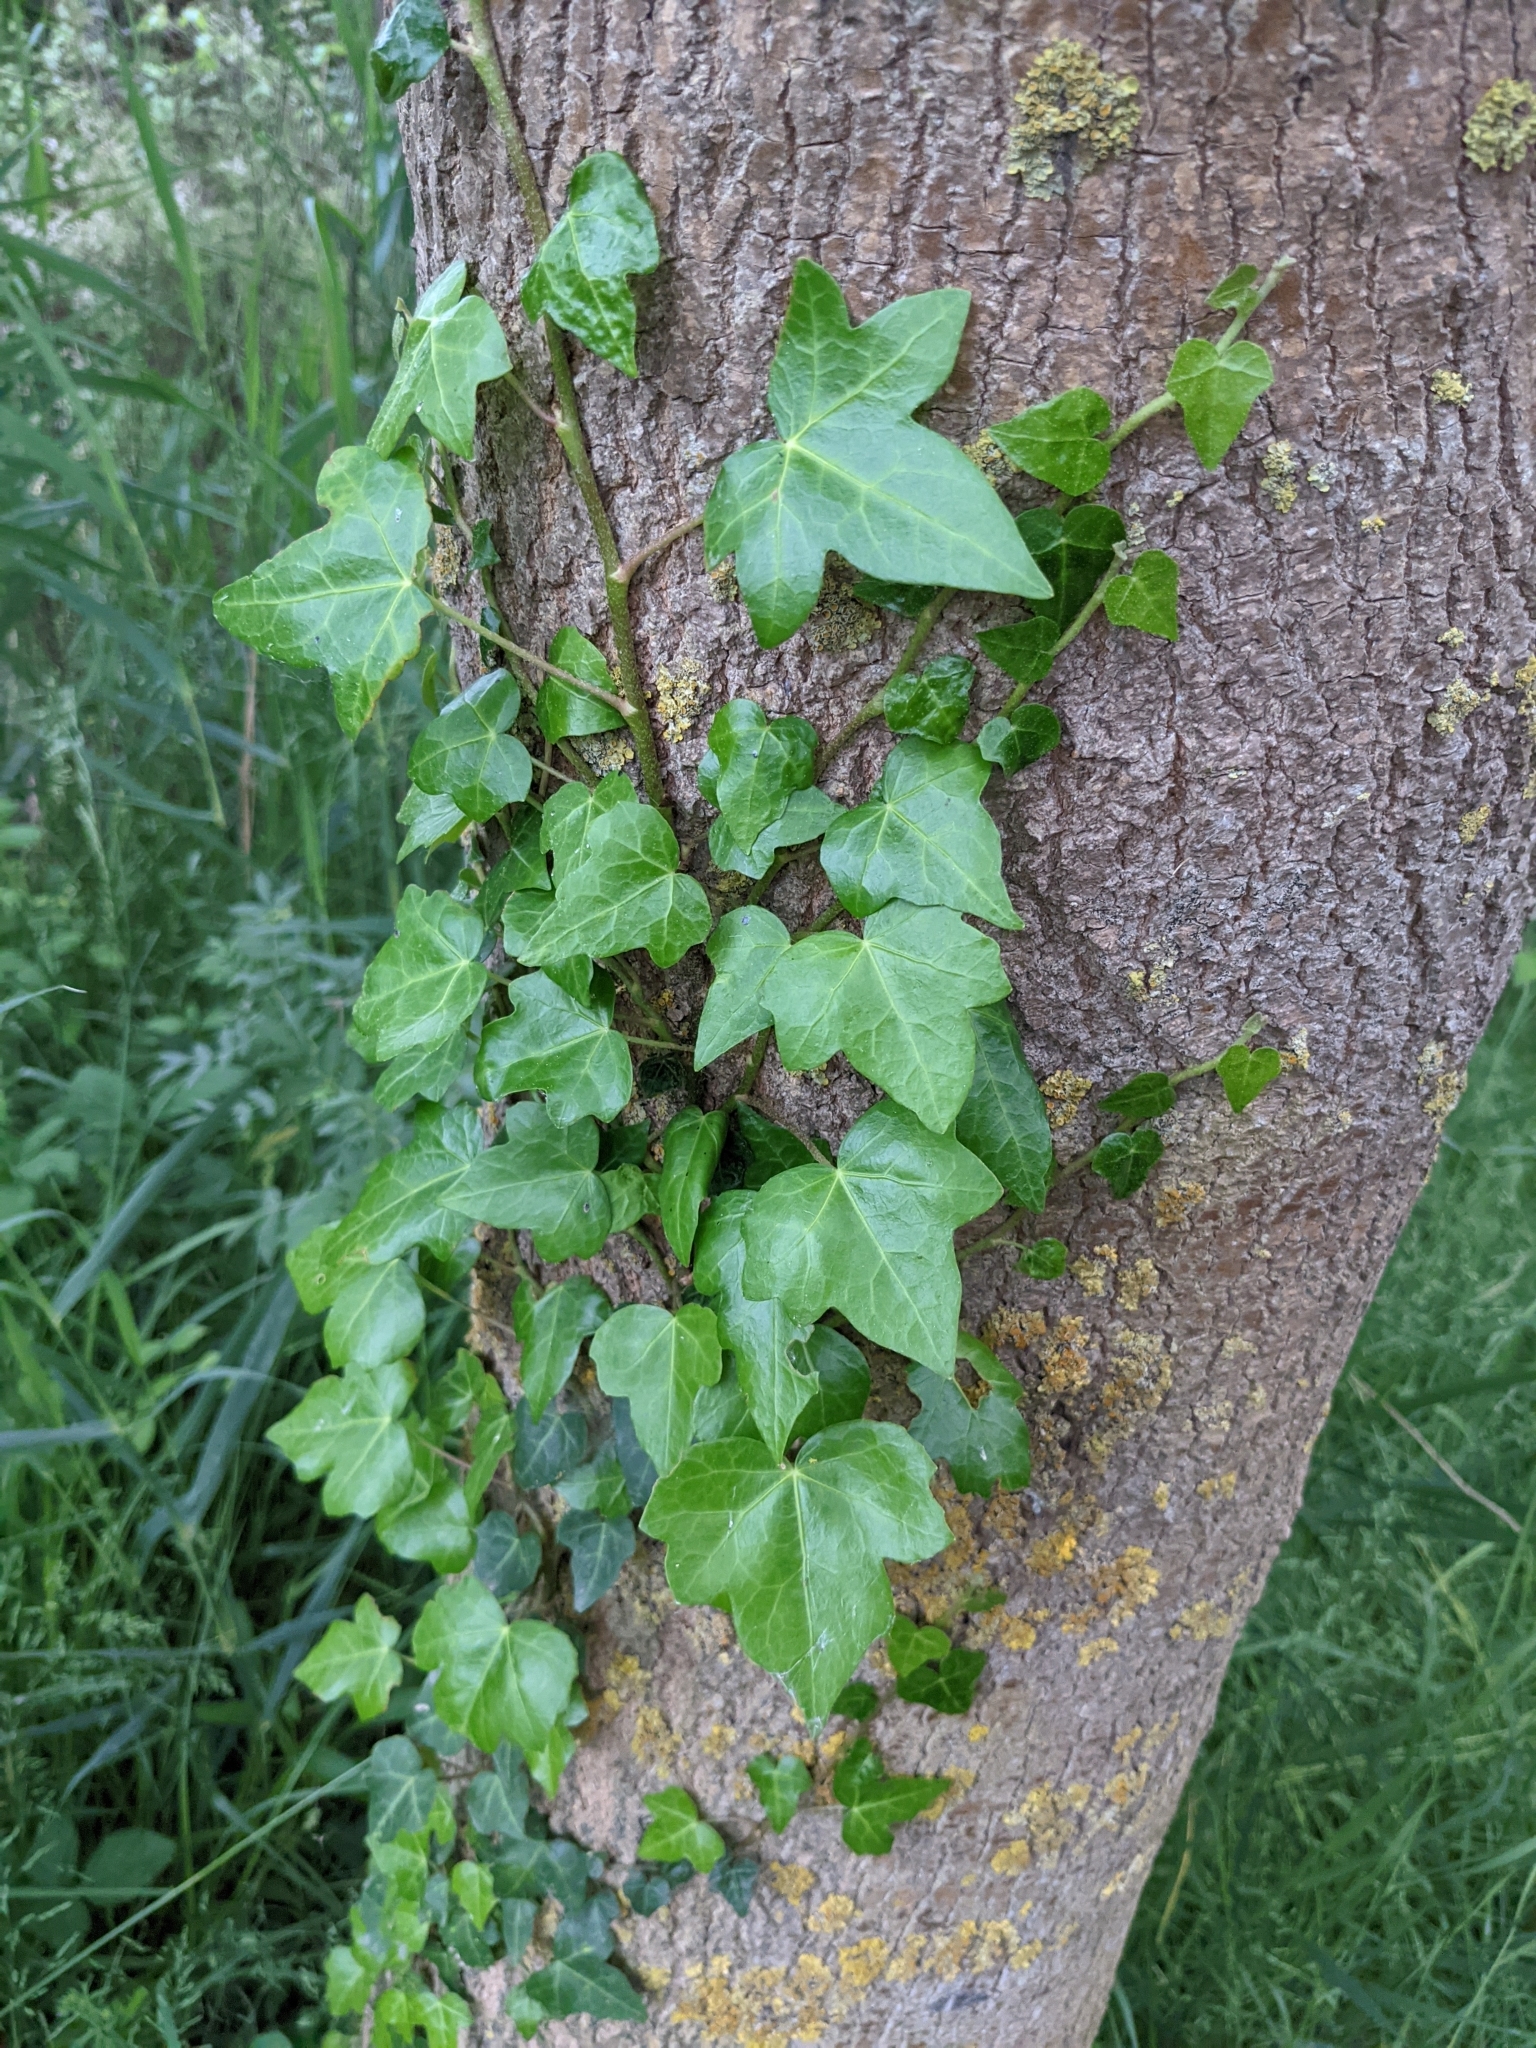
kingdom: Plantae
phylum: Tracheophyta
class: Magnoliopsida
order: Apiales
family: Araliaceae
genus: Hedera
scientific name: Hedera helix
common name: Ivy
